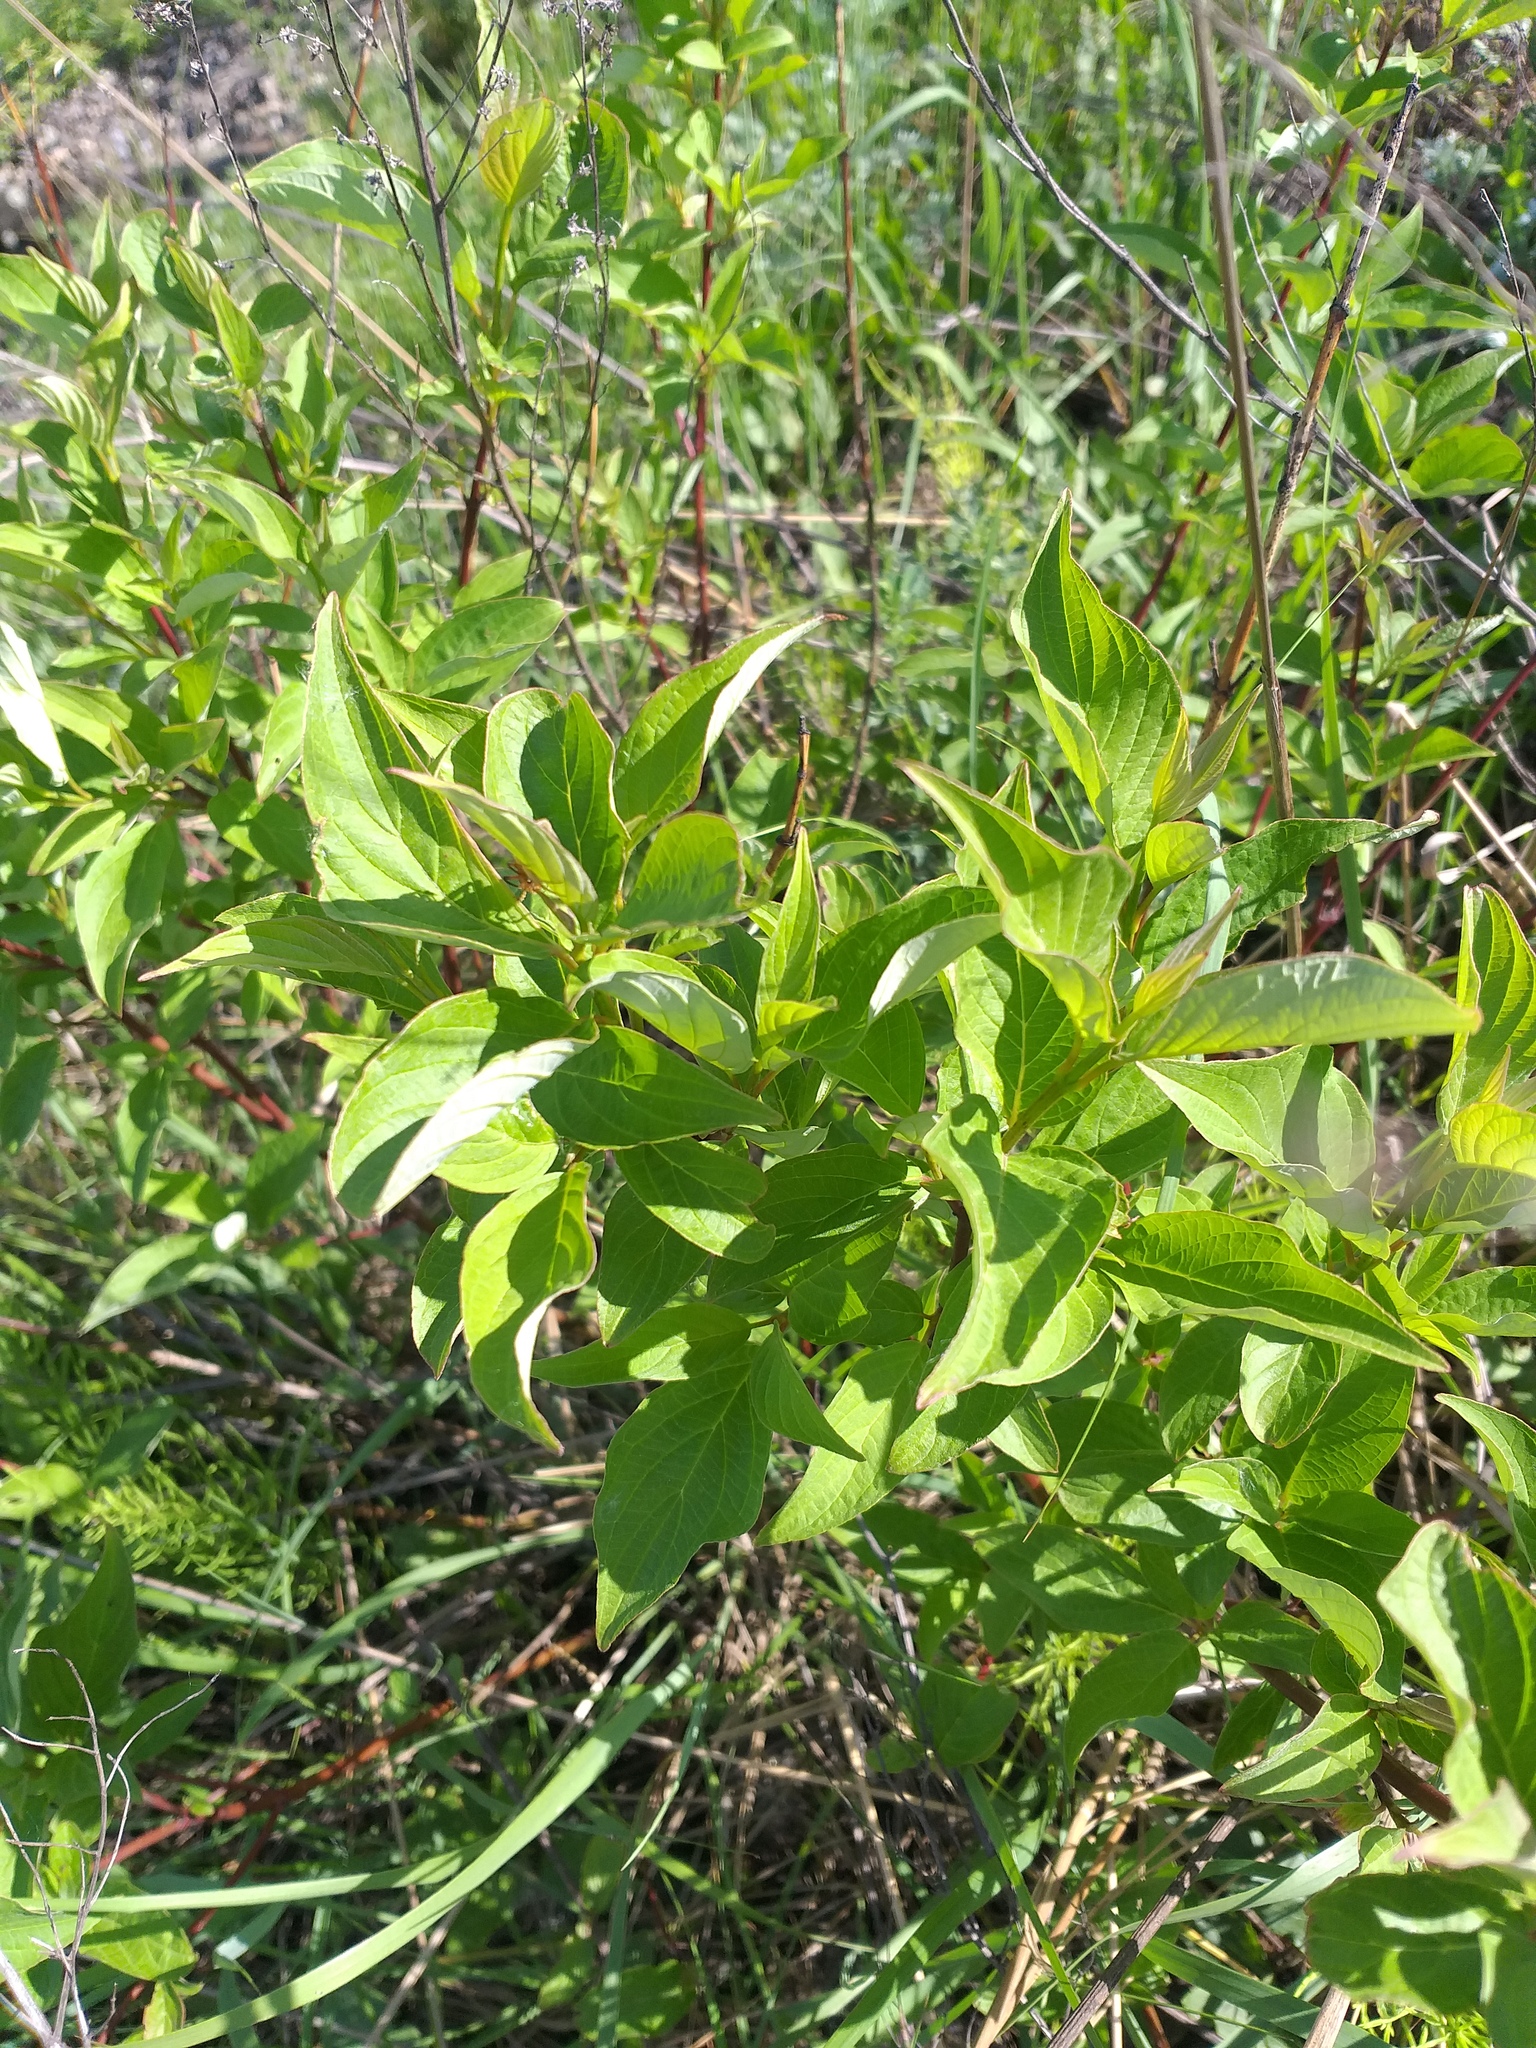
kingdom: Plantae
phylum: Tracheophyta
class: Magnoliopsida
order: Cornales
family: Cornaceae
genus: Cornus
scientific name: Cornus alba
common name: White dogwood
